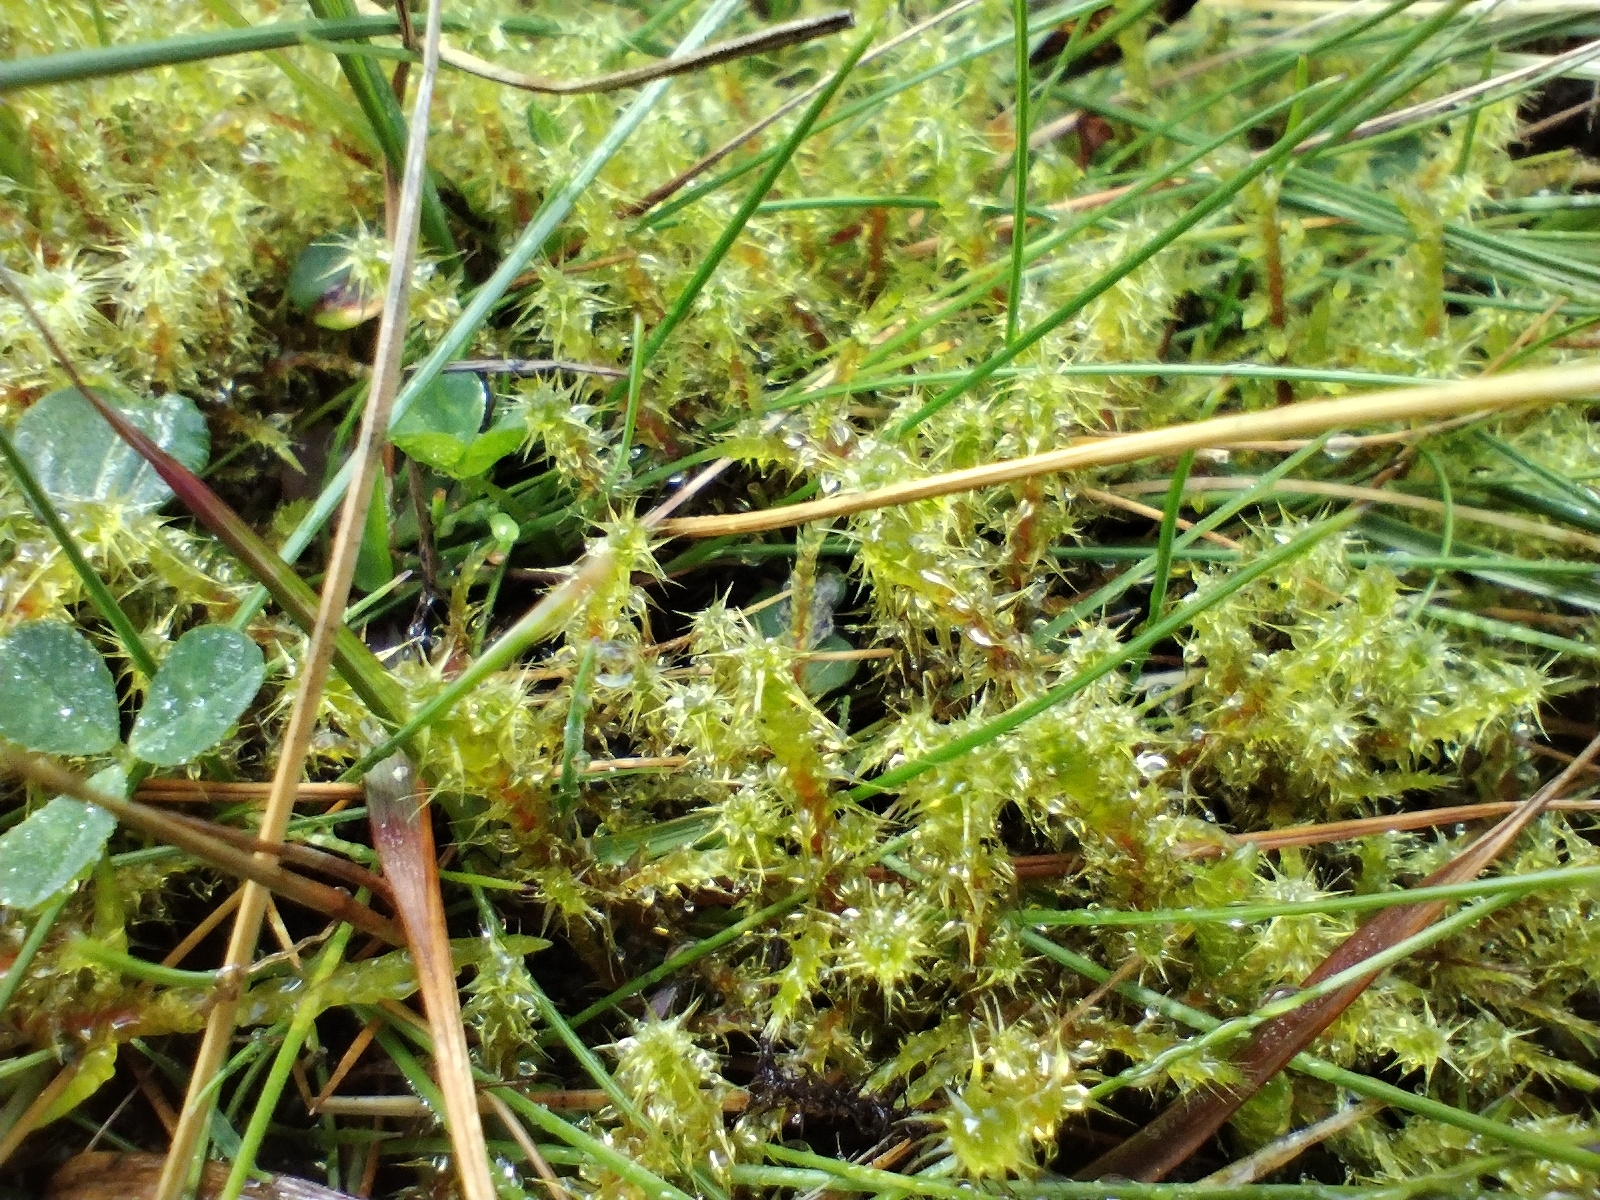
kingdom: Plantae
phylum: Bryophyta
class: Bryopsida
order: Hypnales
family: Hylocomiaceae
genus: Rhytidiadelphus
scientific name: Rhytidiadelphus squarrosus
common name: Springy turf-moss
